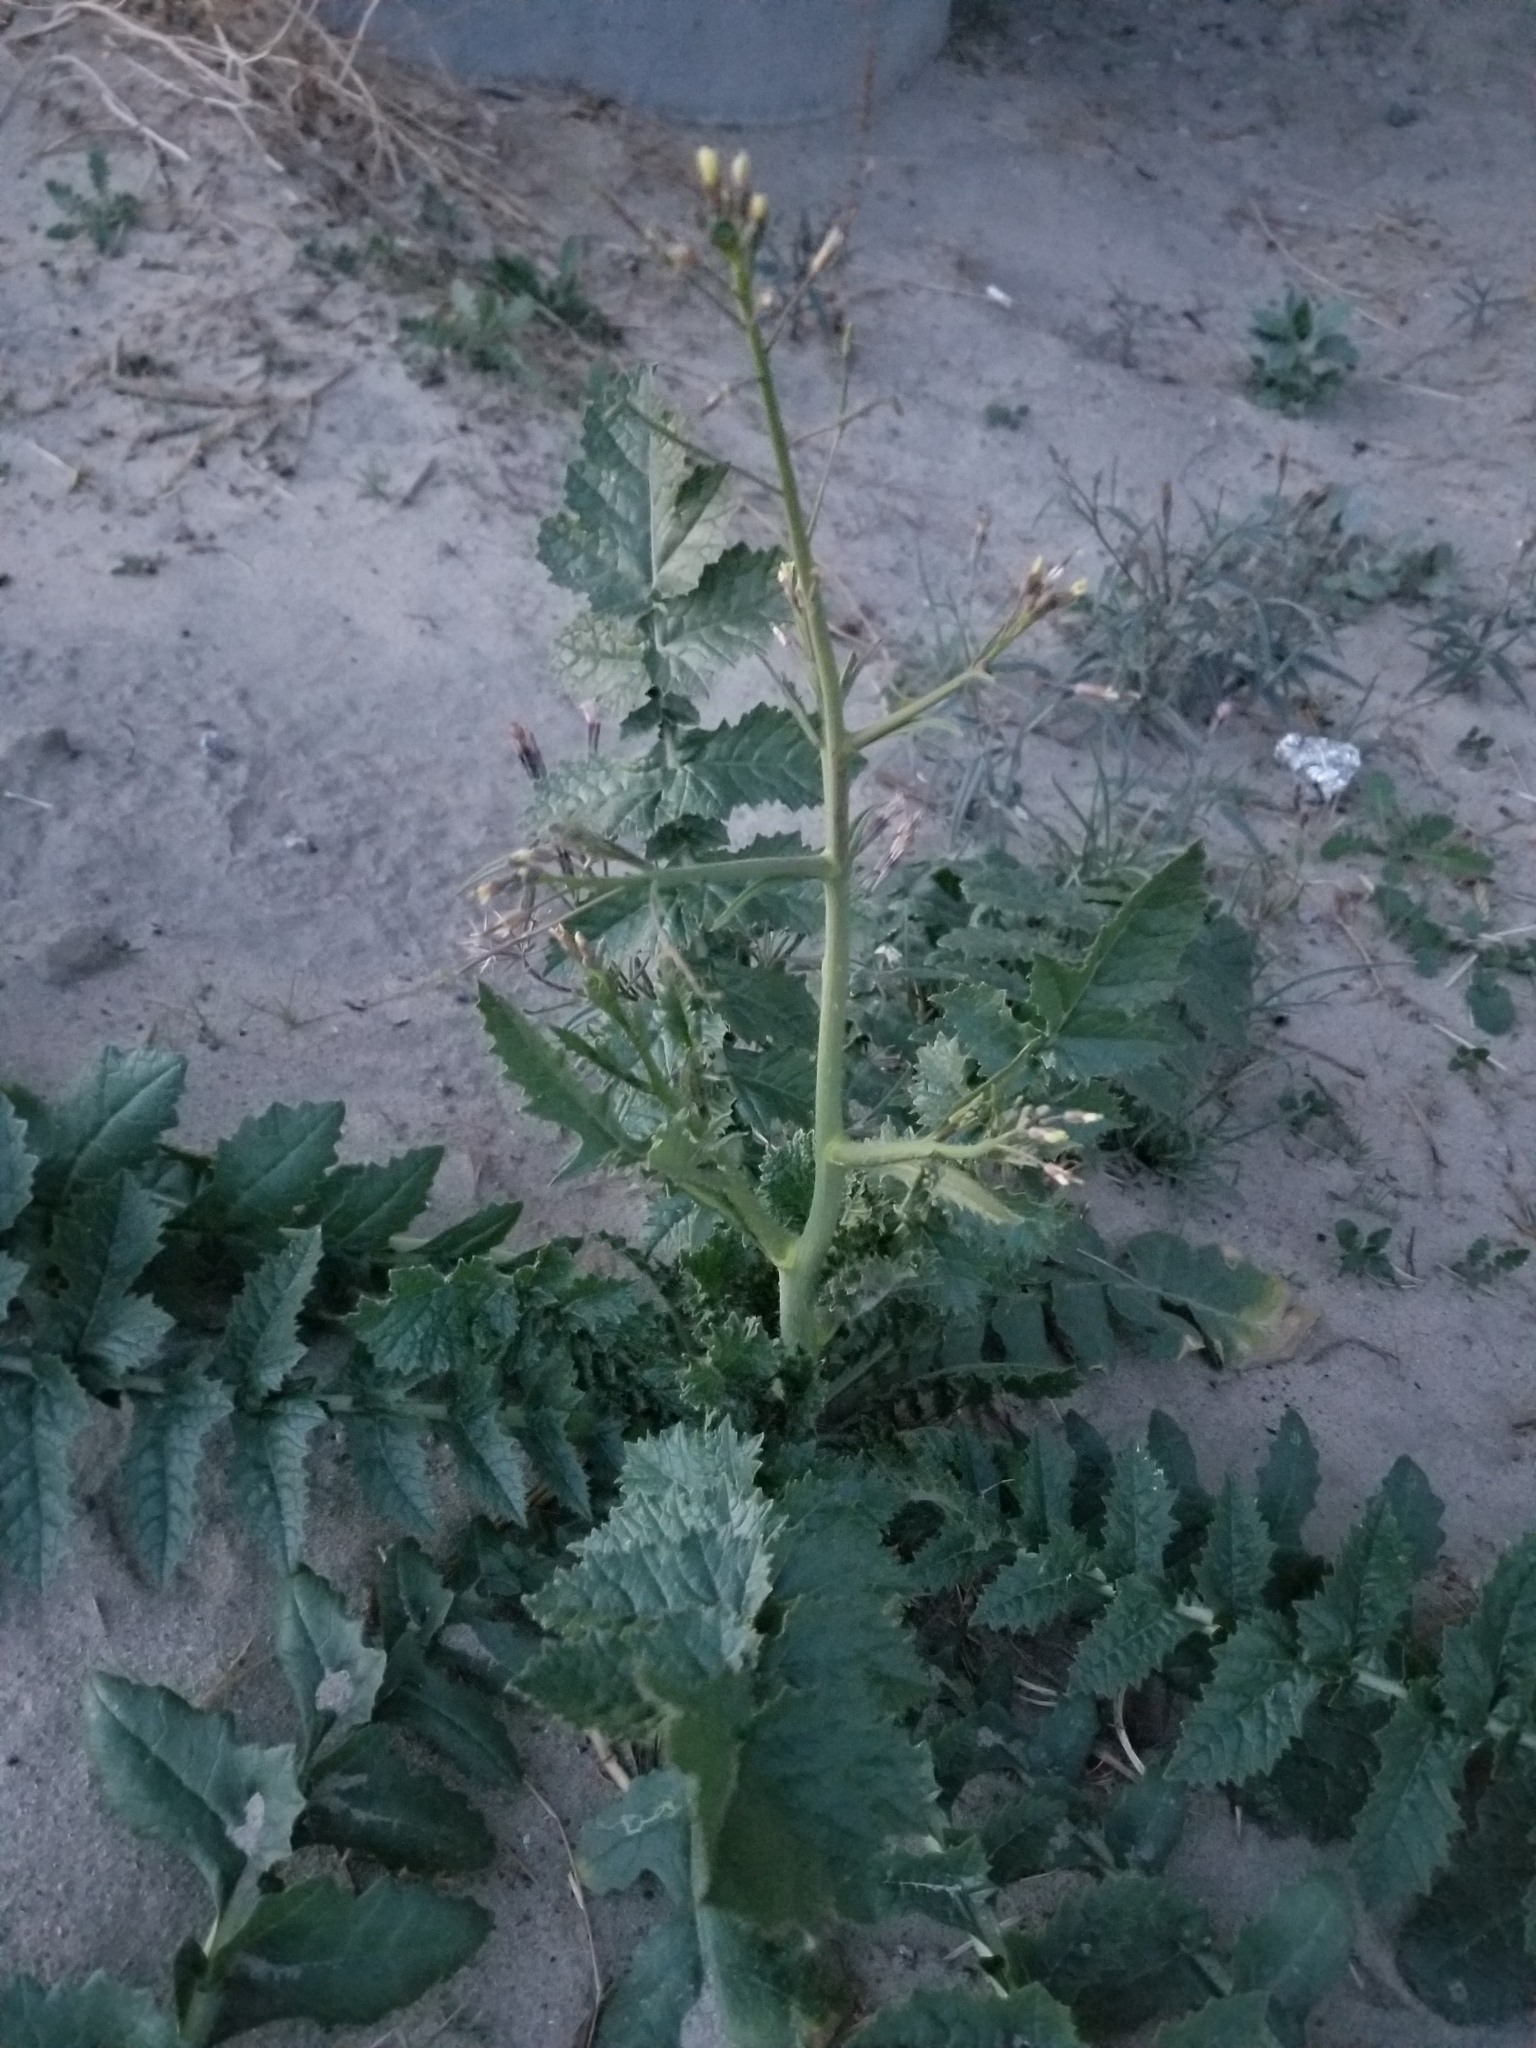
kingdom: Plantae
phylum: Tracheophyta
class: Magnoliopsida
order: Brassicales
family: Brassicaceae
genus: Brassica
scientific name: Brassica tournefortii
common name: Pale cabbage
